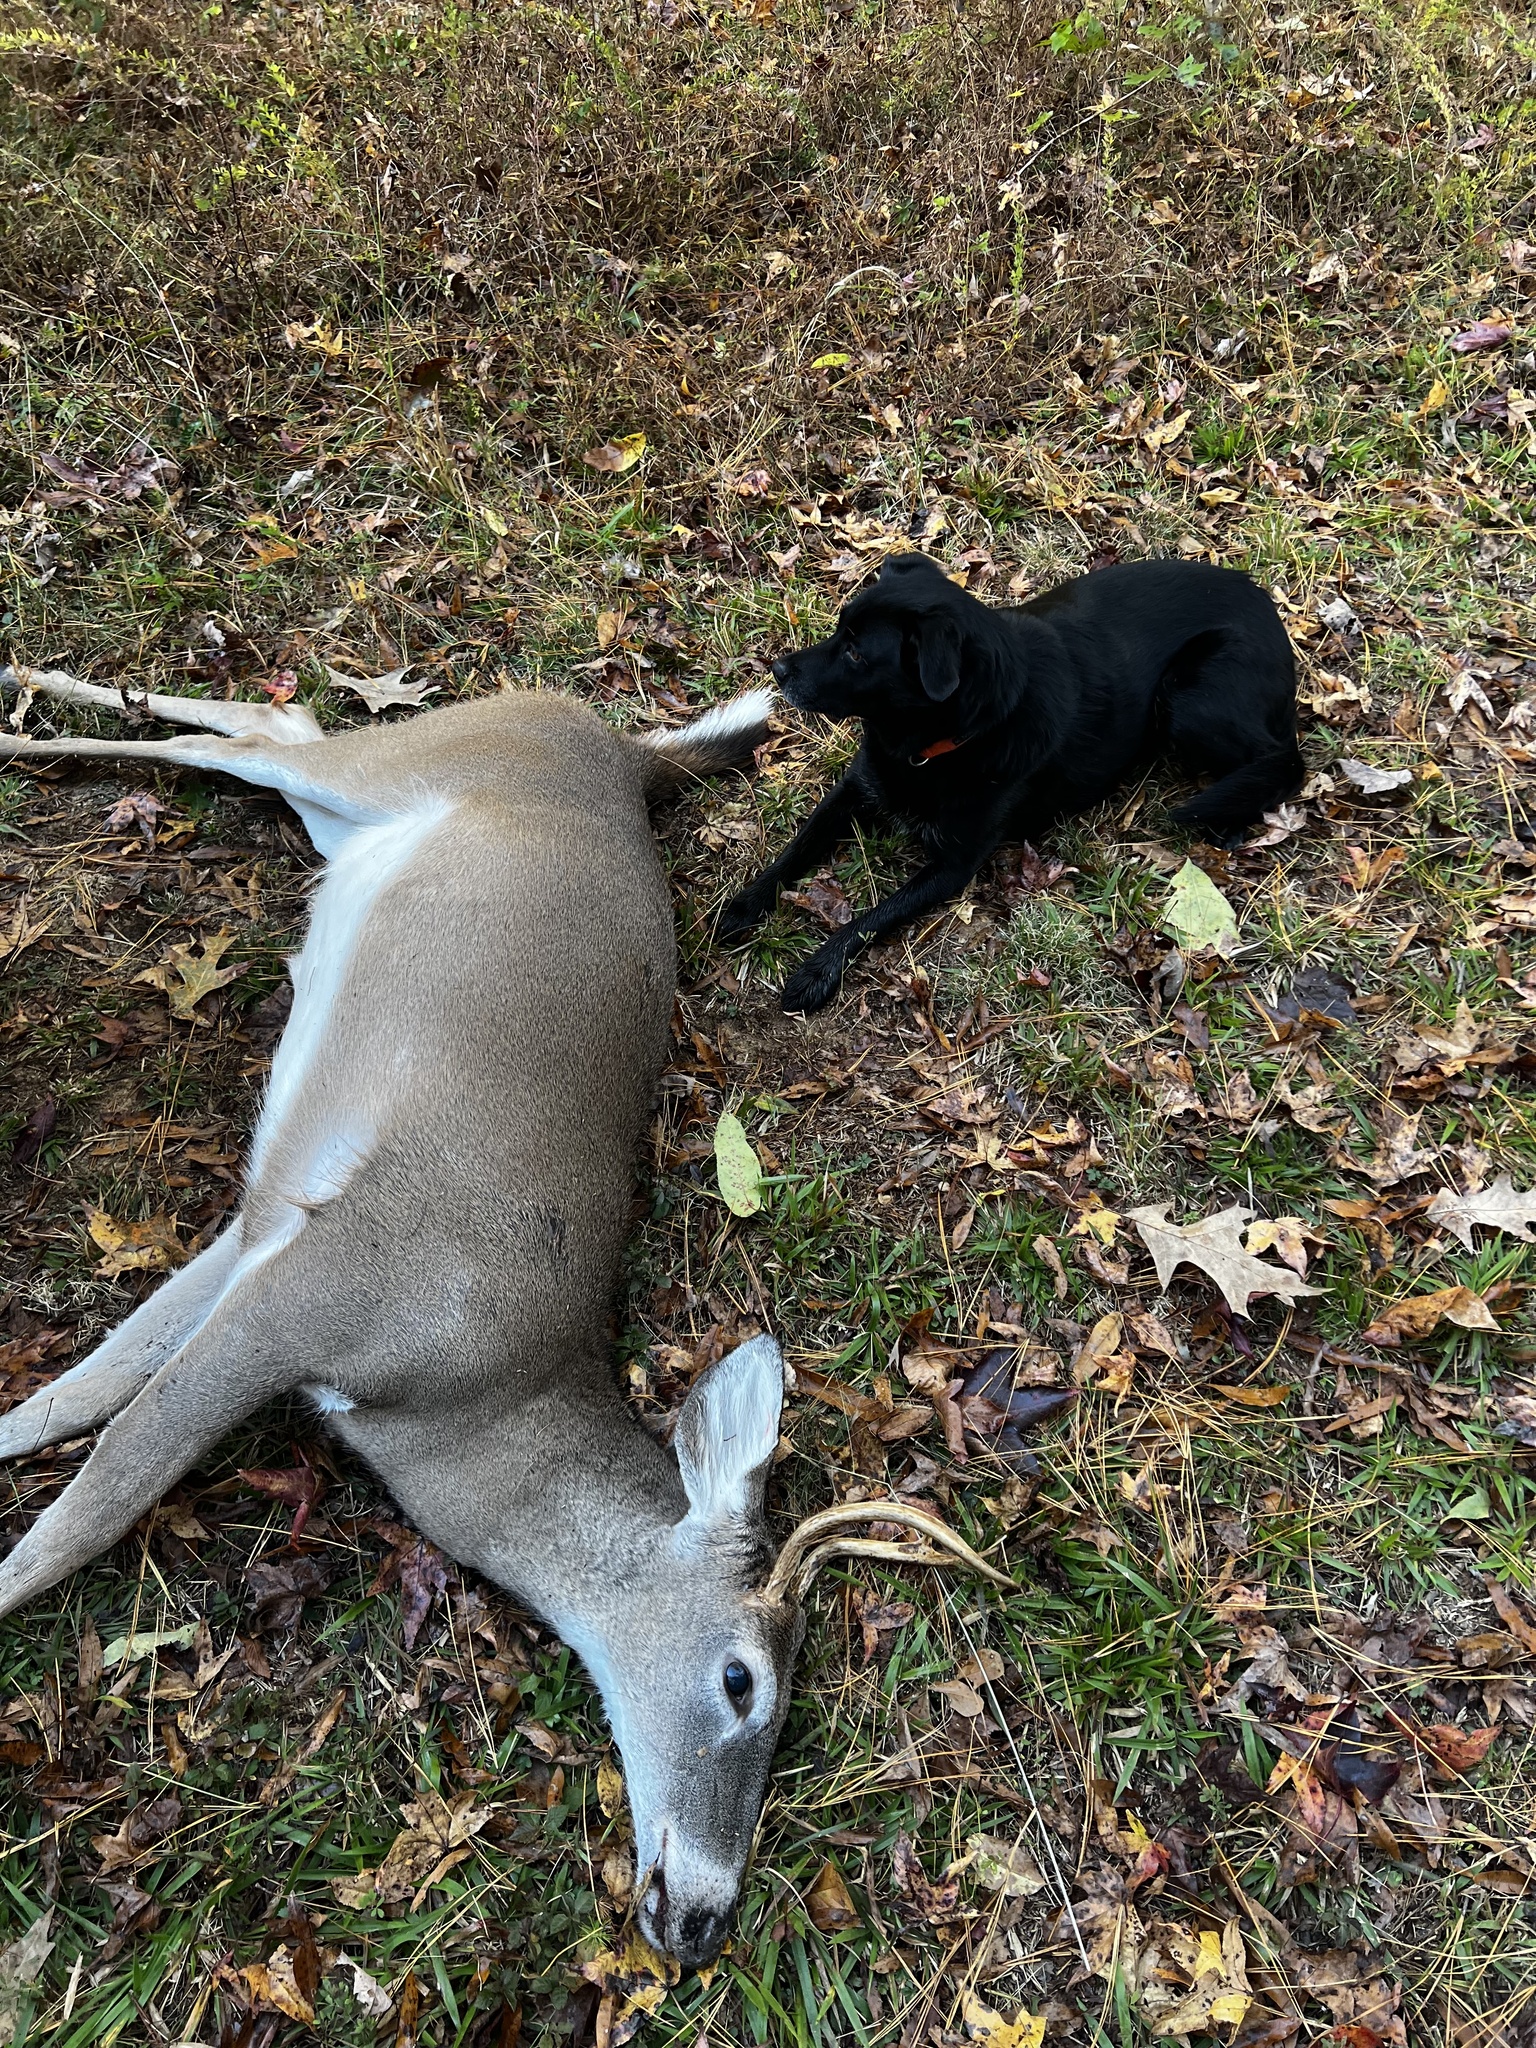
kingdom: Animalia
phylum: Chordata
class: Mammalia
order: Artiodactyla
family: Cervidae
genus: Odocoileus
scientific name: Odocoileus virginianus
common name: White-tailed deer
